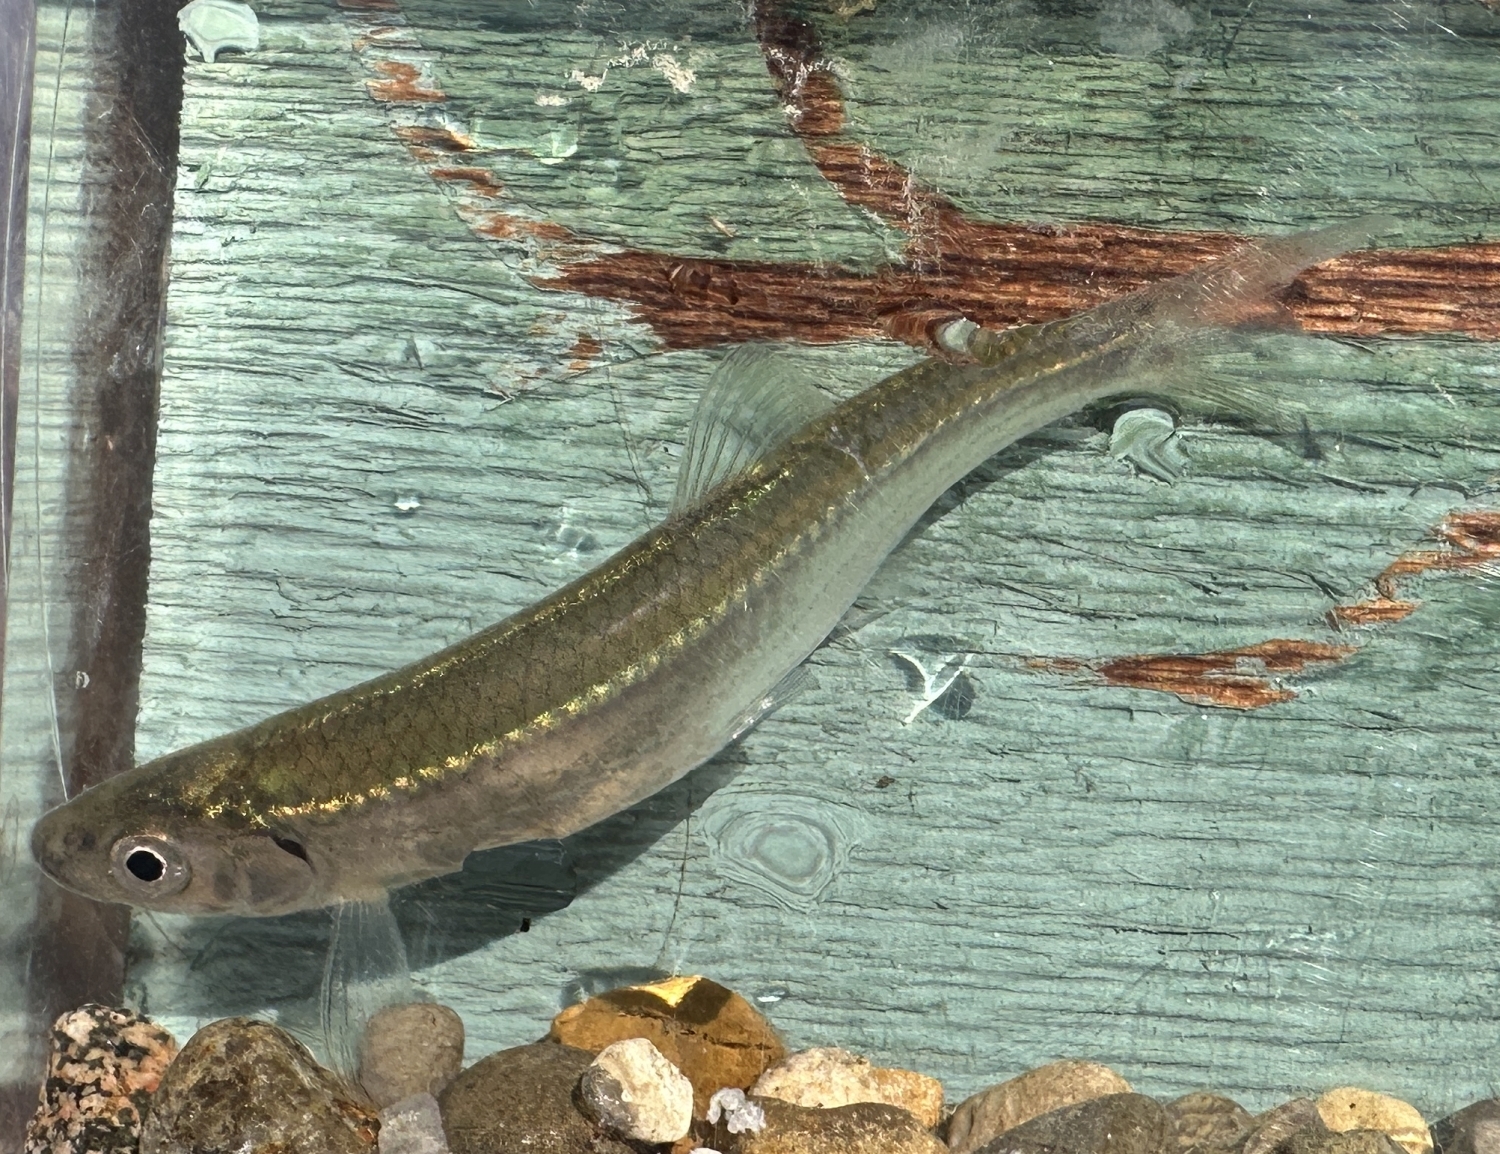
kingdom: Animalia
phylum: Chordata
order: Cypriniformes
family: Cyprinidae
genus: Notropis
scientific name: Notropis atherinoides
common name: Emerald shiner
